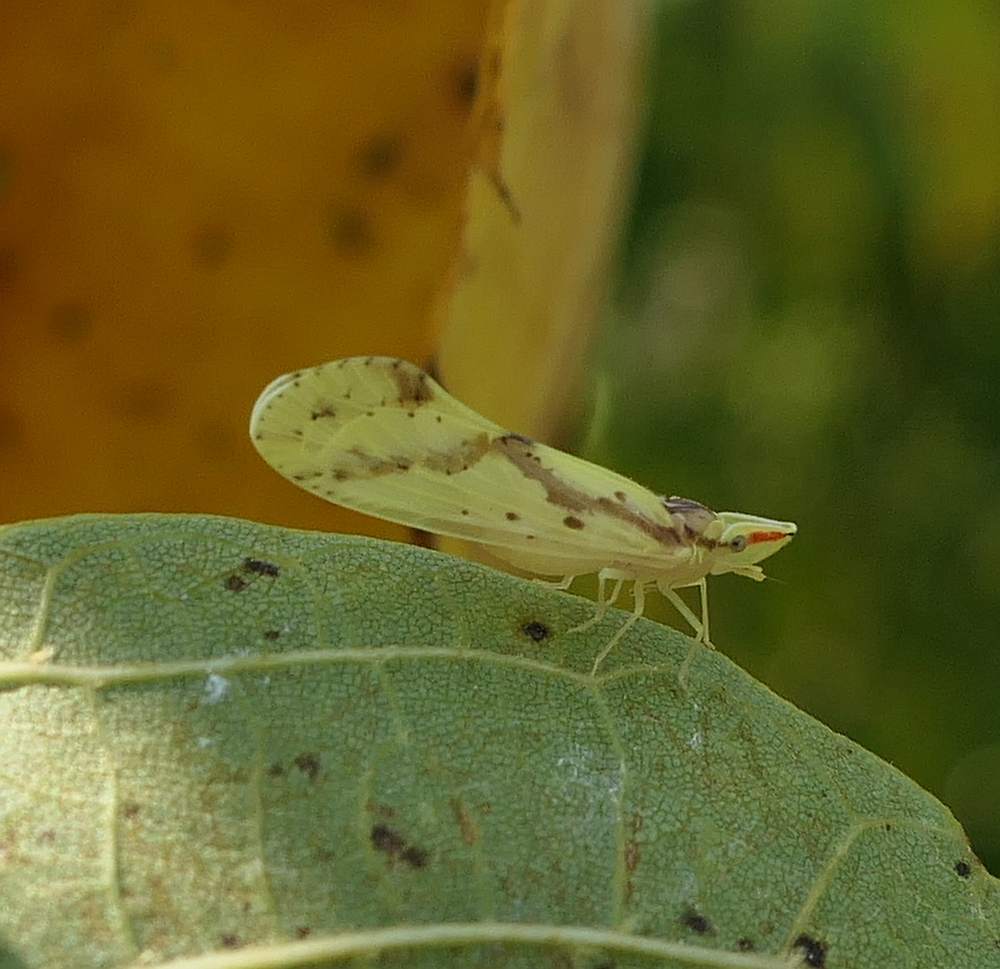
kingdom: Animalia
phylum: Arthropoda
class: Insecta
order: Hemiptera
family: Derbidae
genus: Otiocerus
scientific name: Otiocerus wolfii
